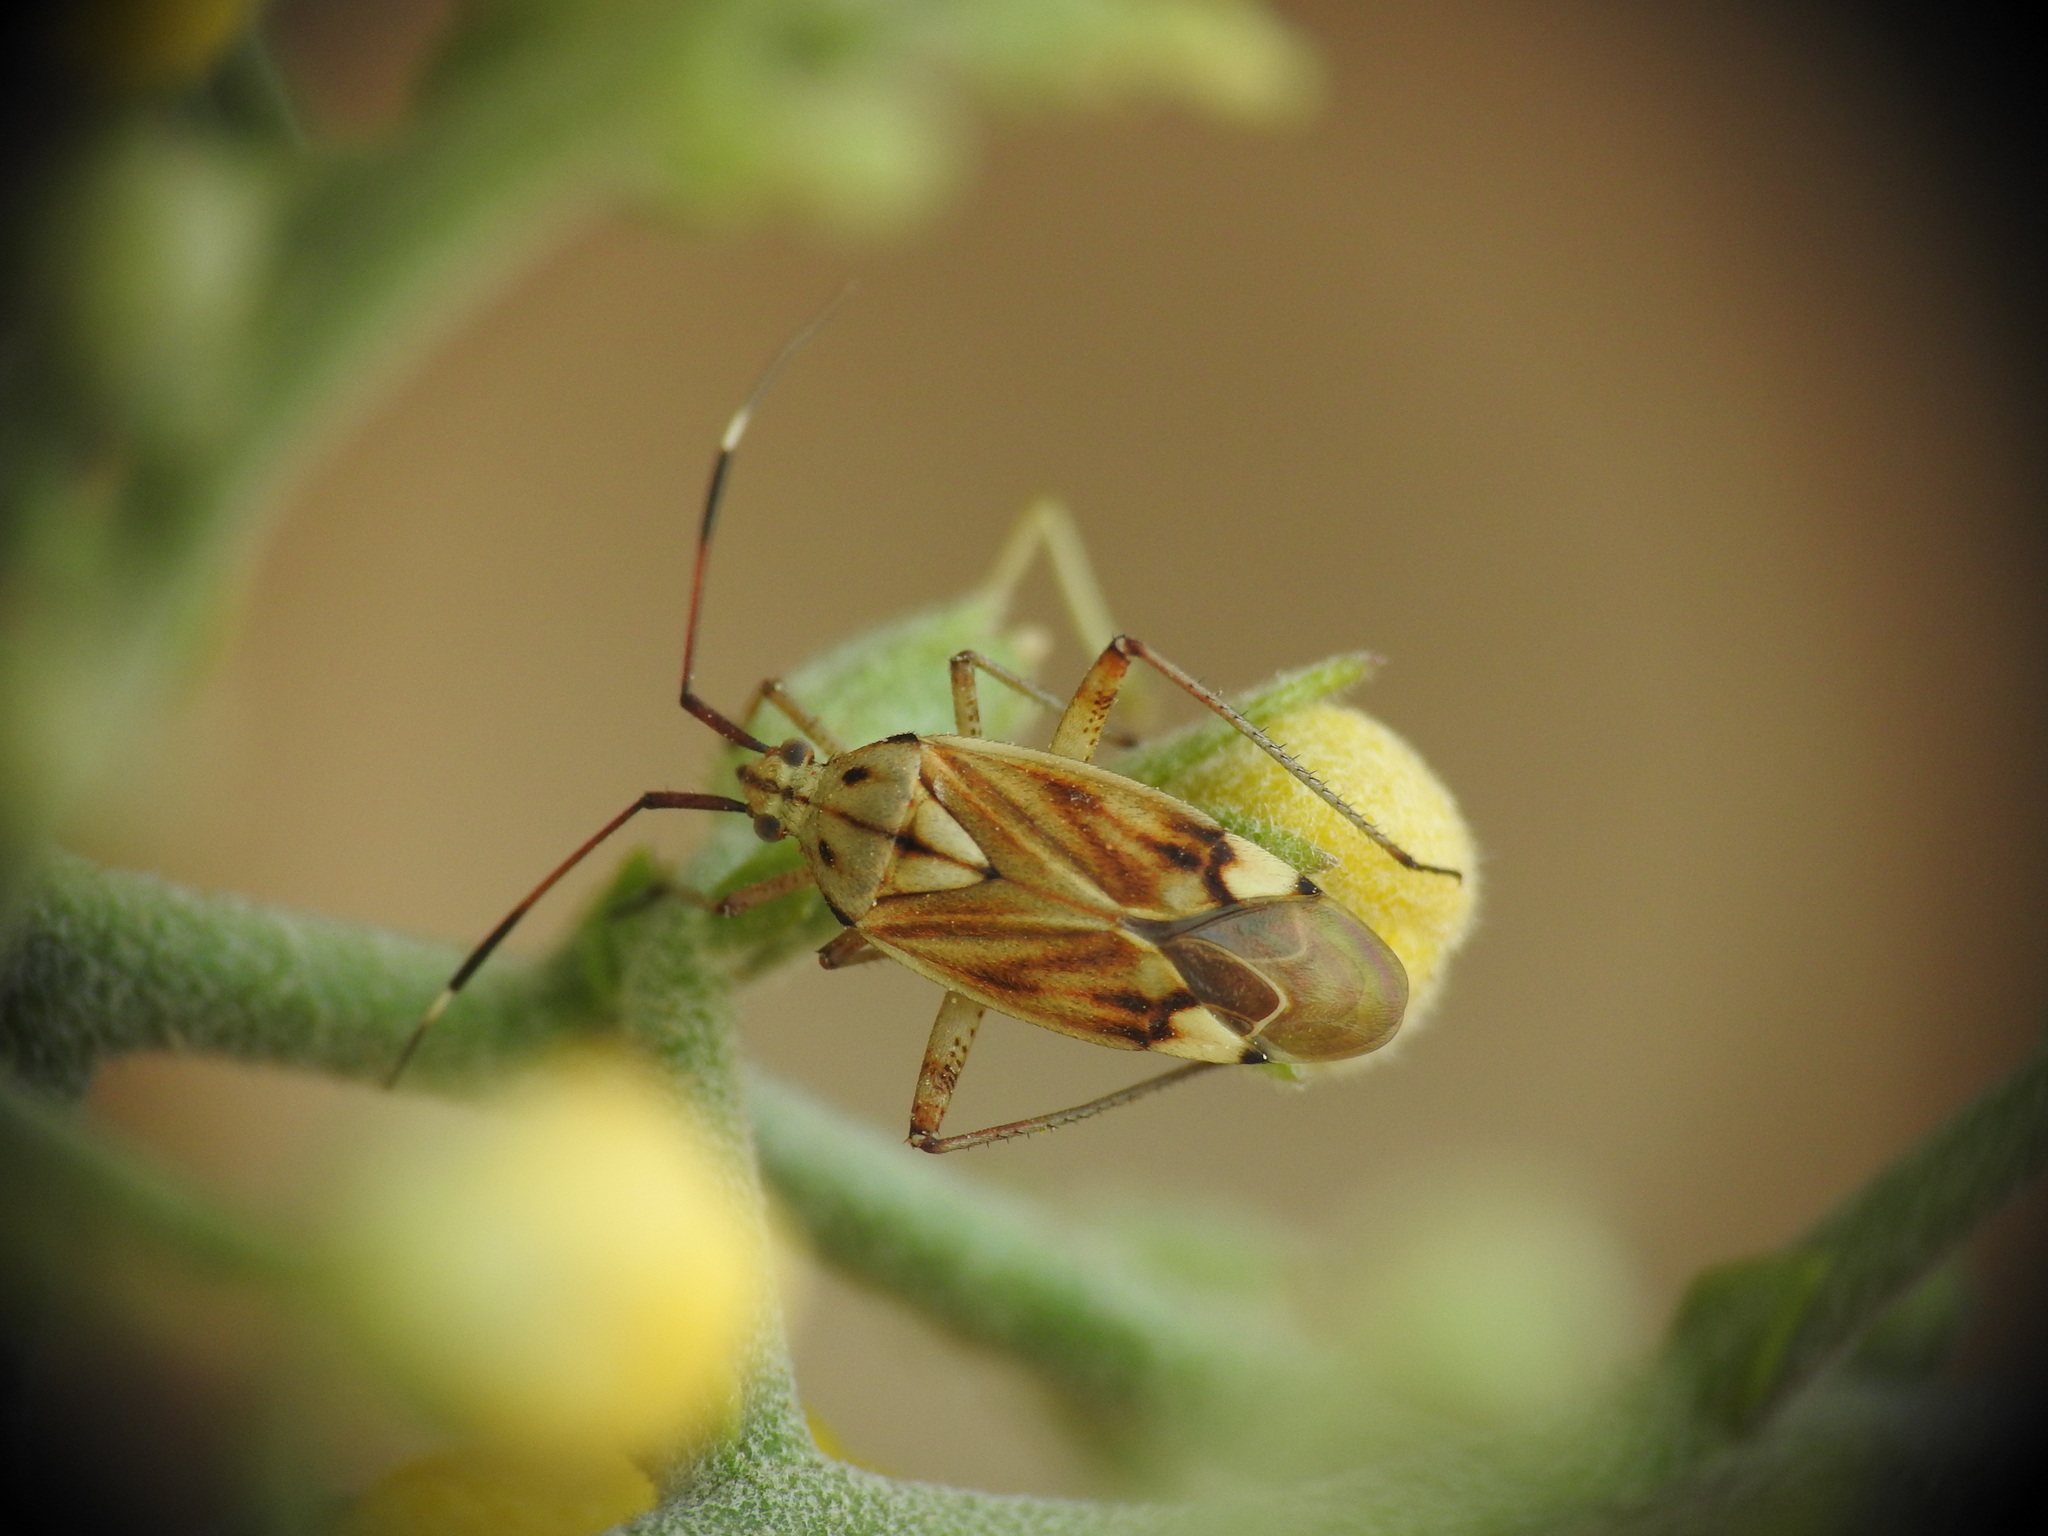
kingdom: Animalia
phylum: Arthropoda
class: Insecta
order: Hemiptera
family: Miridae
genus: Closterotomus
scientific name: Closterotomus krueperi
